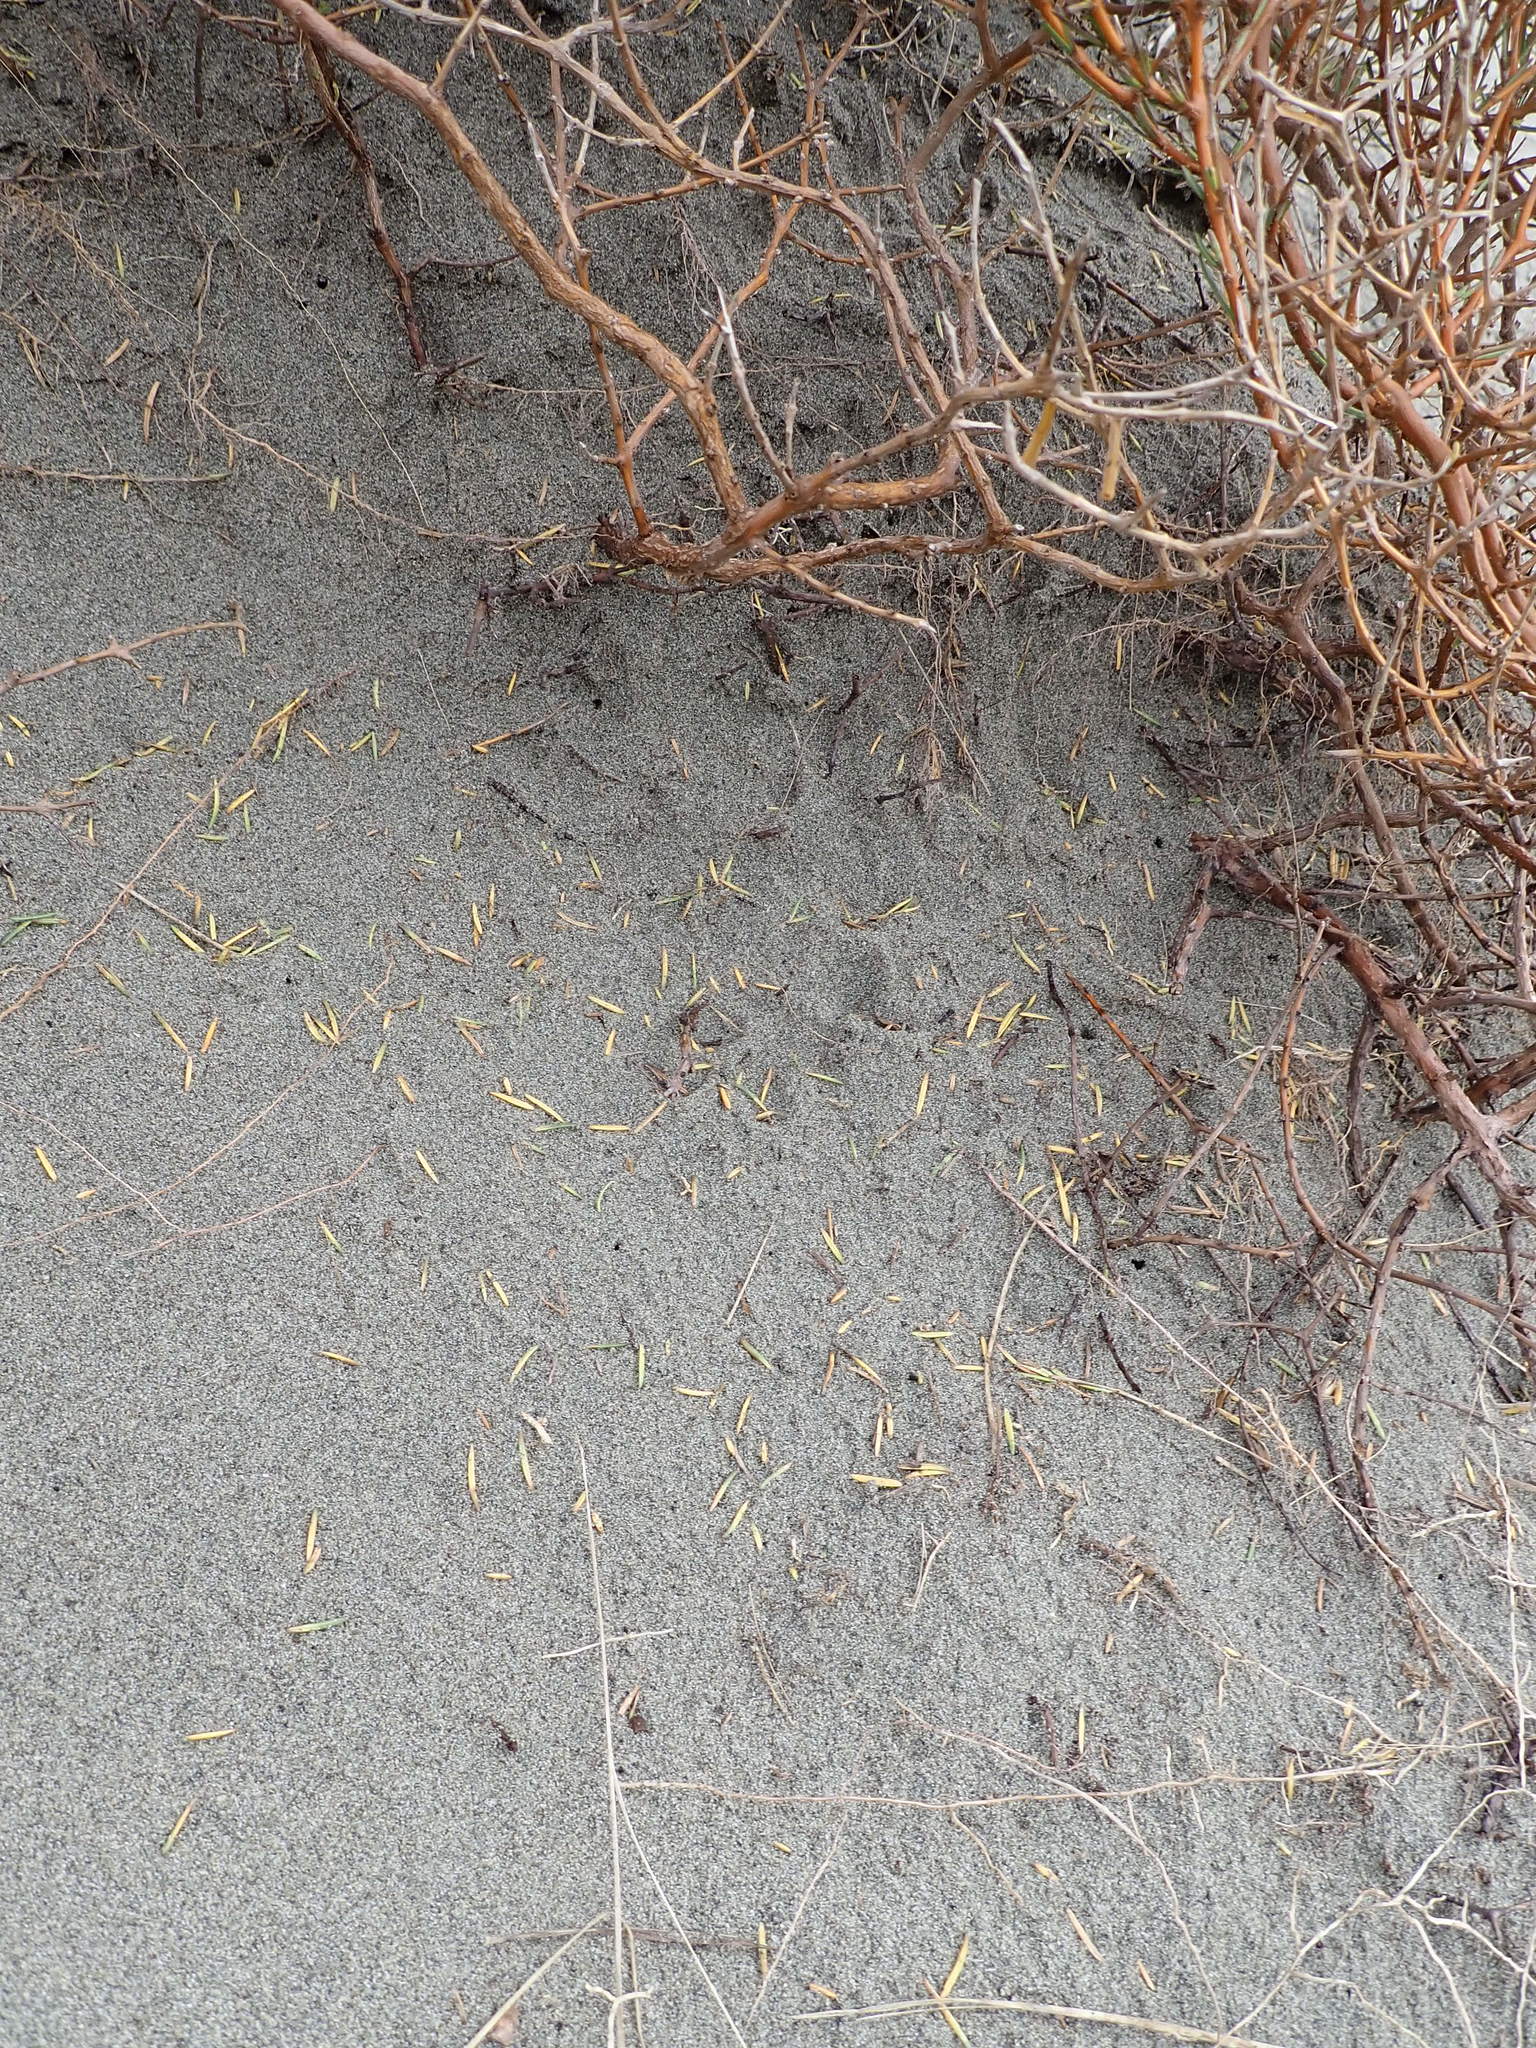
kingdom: Plantae
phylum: Tracheophyta
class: Magnoliopsida
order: Gentianales
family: Rubiaceae
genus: Coprosma
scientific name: Coprosma acerosa
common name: Sand coprosma
